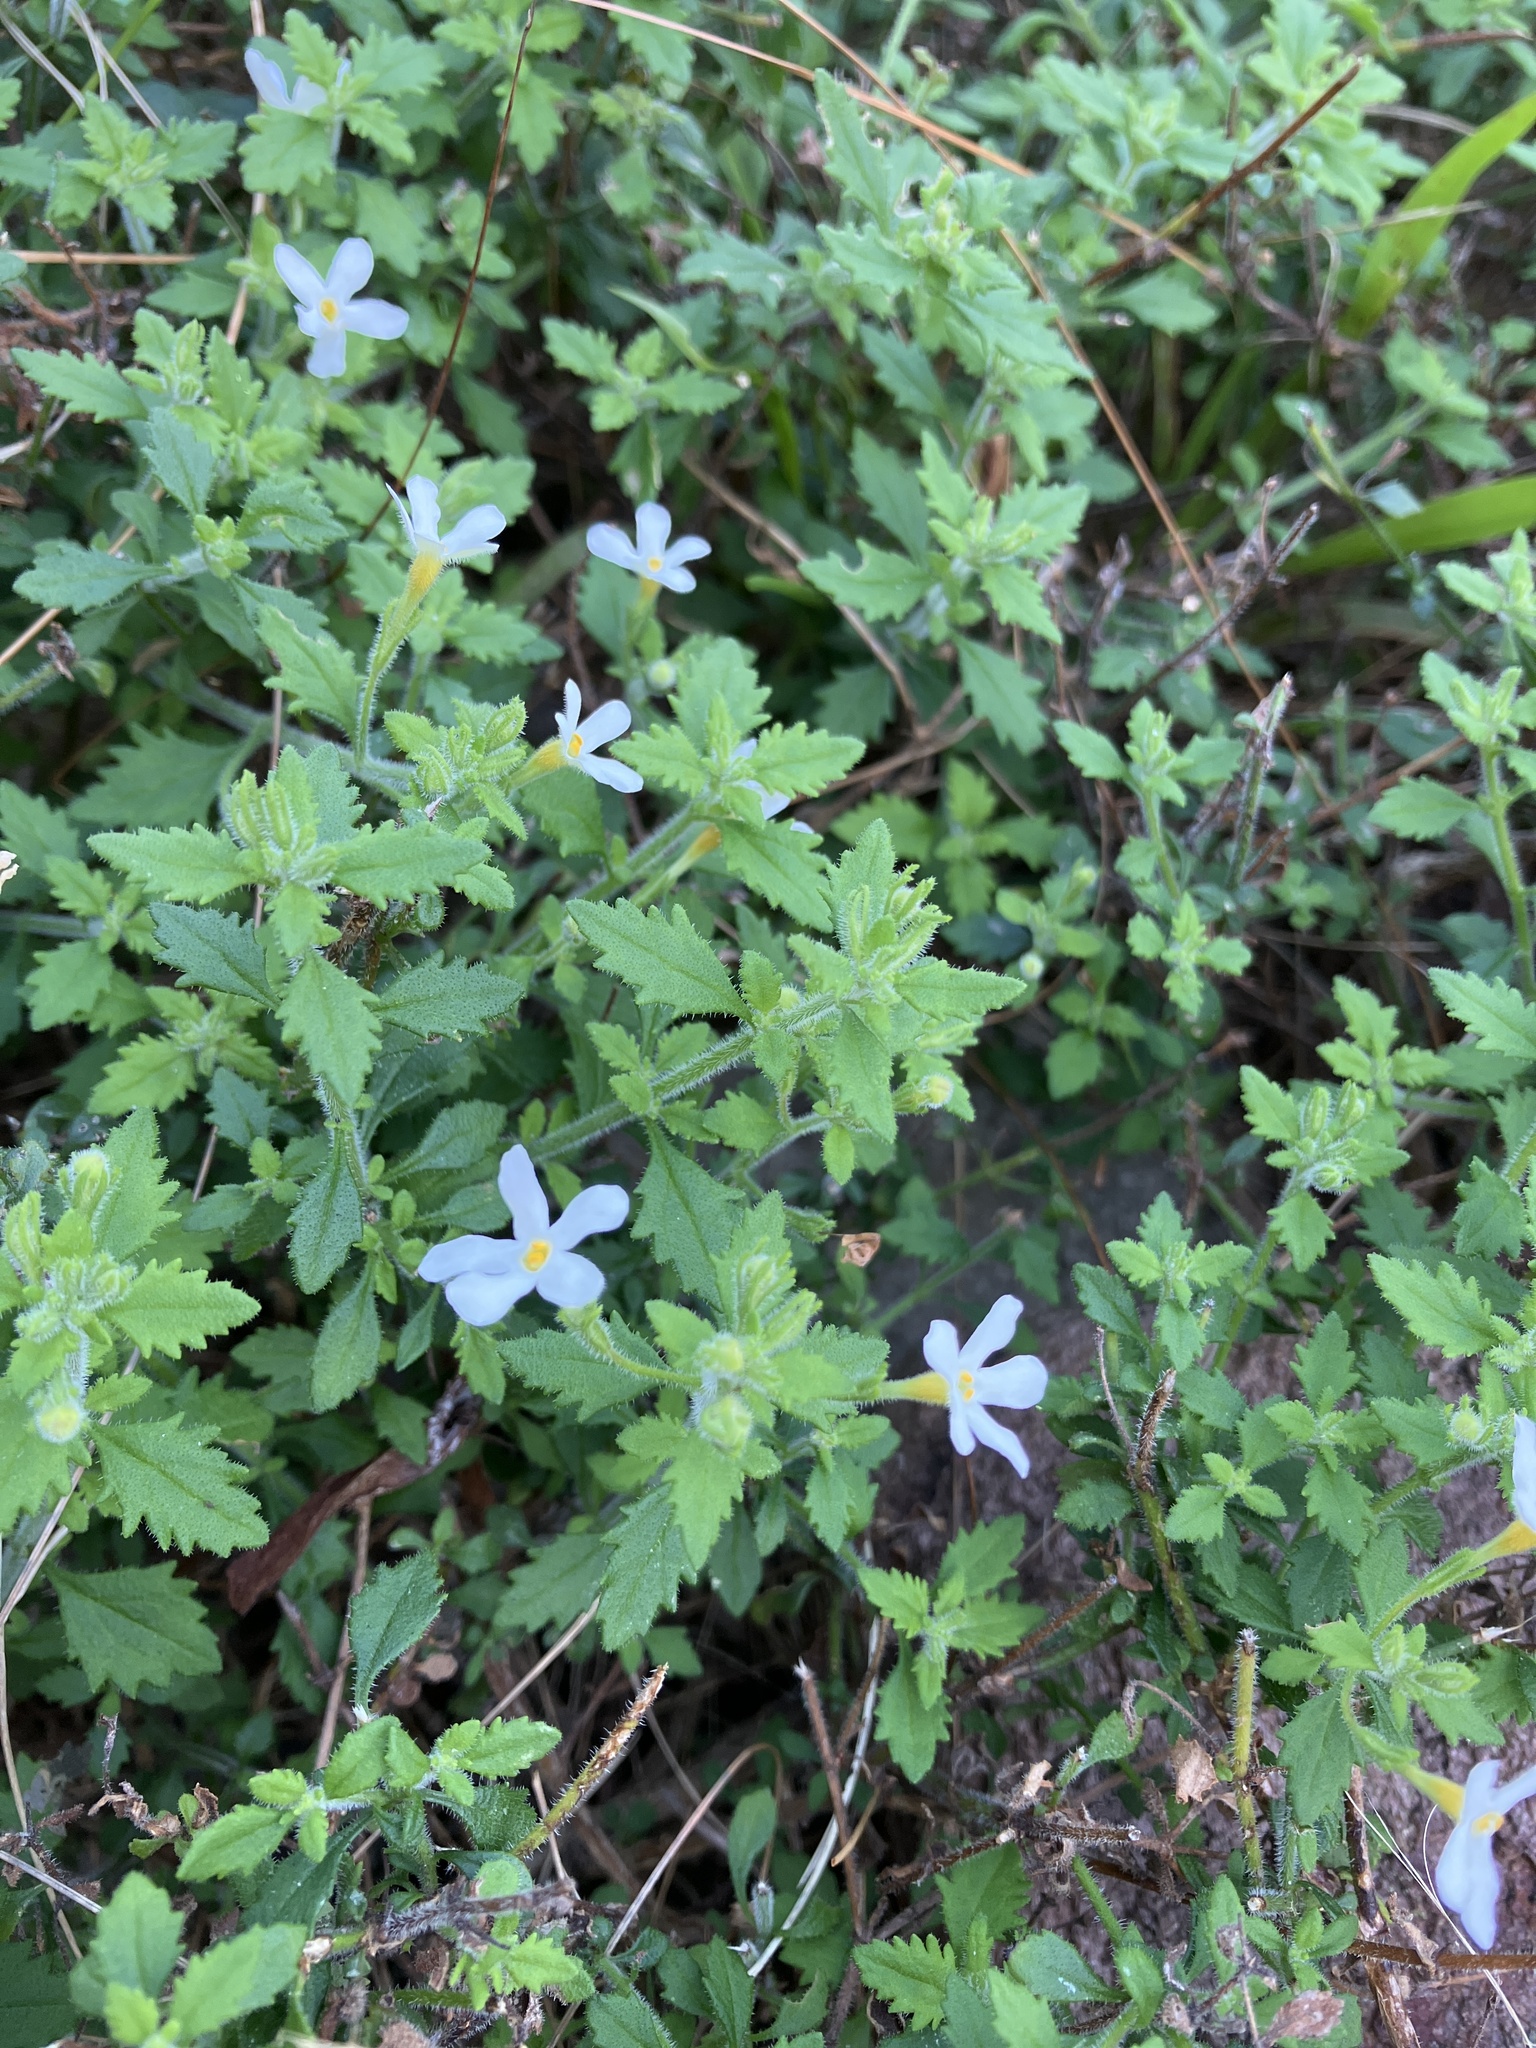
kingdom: Plantae
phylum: Tracheophyta
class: Magnoliopsida
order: Lamiales
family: Scrophulariaceae
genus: Chaenostoma
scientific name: Chaenostoma hispidum
